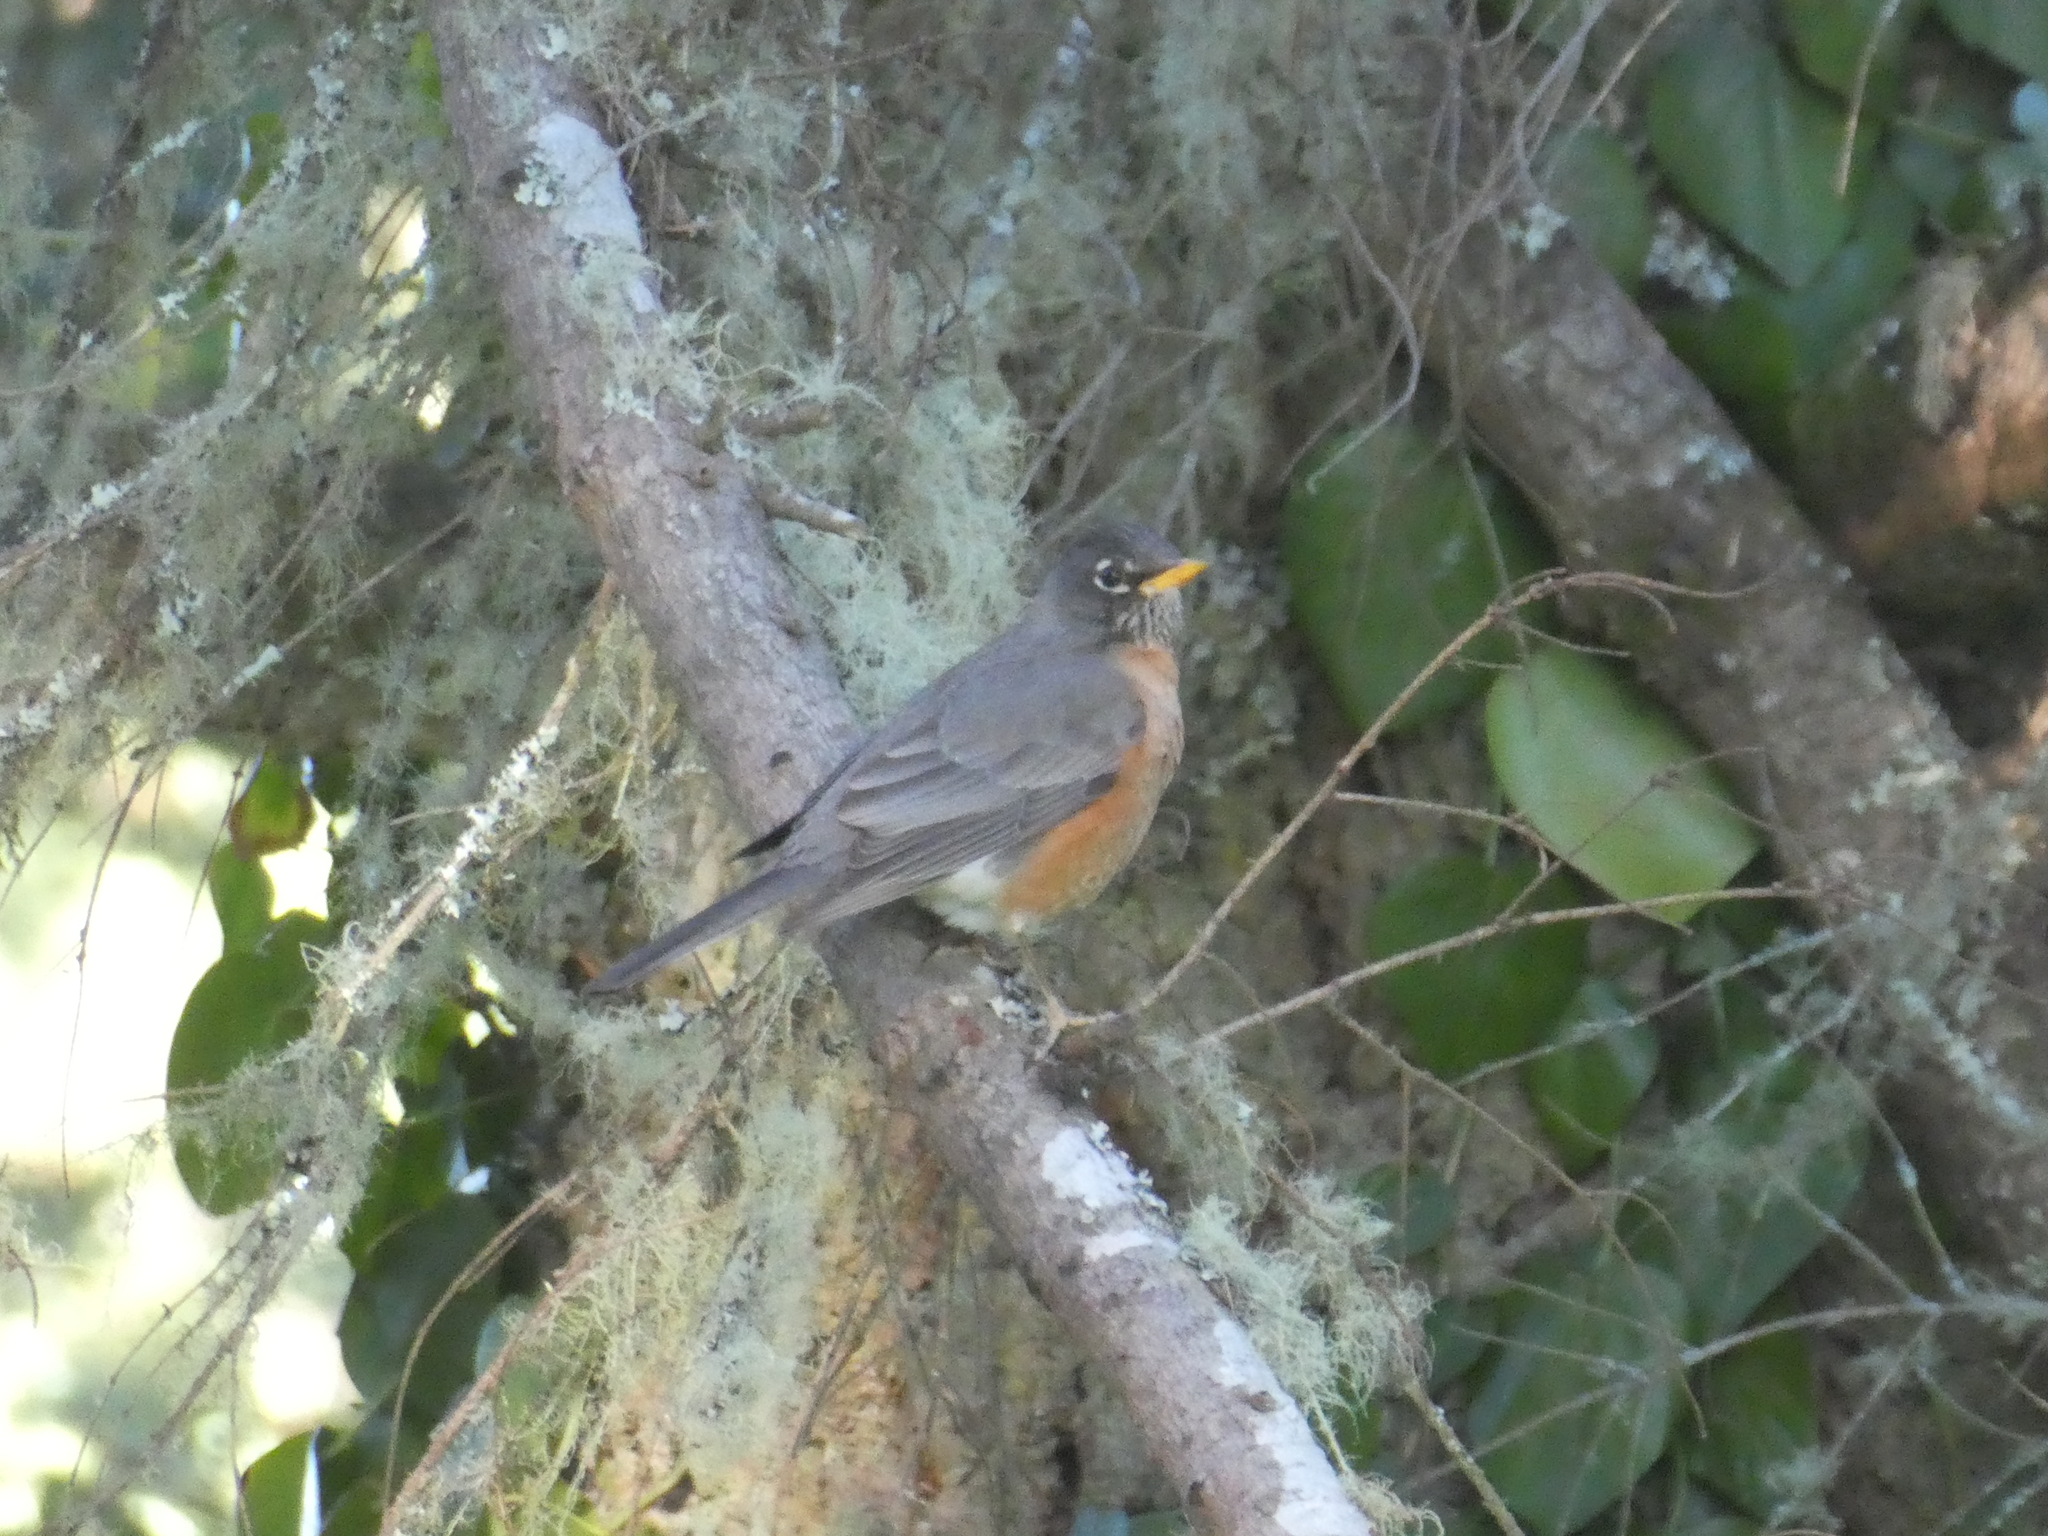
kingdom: Animalia
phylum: Chordata
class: Aves
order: Passeriformes
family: Turdidae
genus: Turdus
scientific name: Turdus migratorius
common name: American robin
